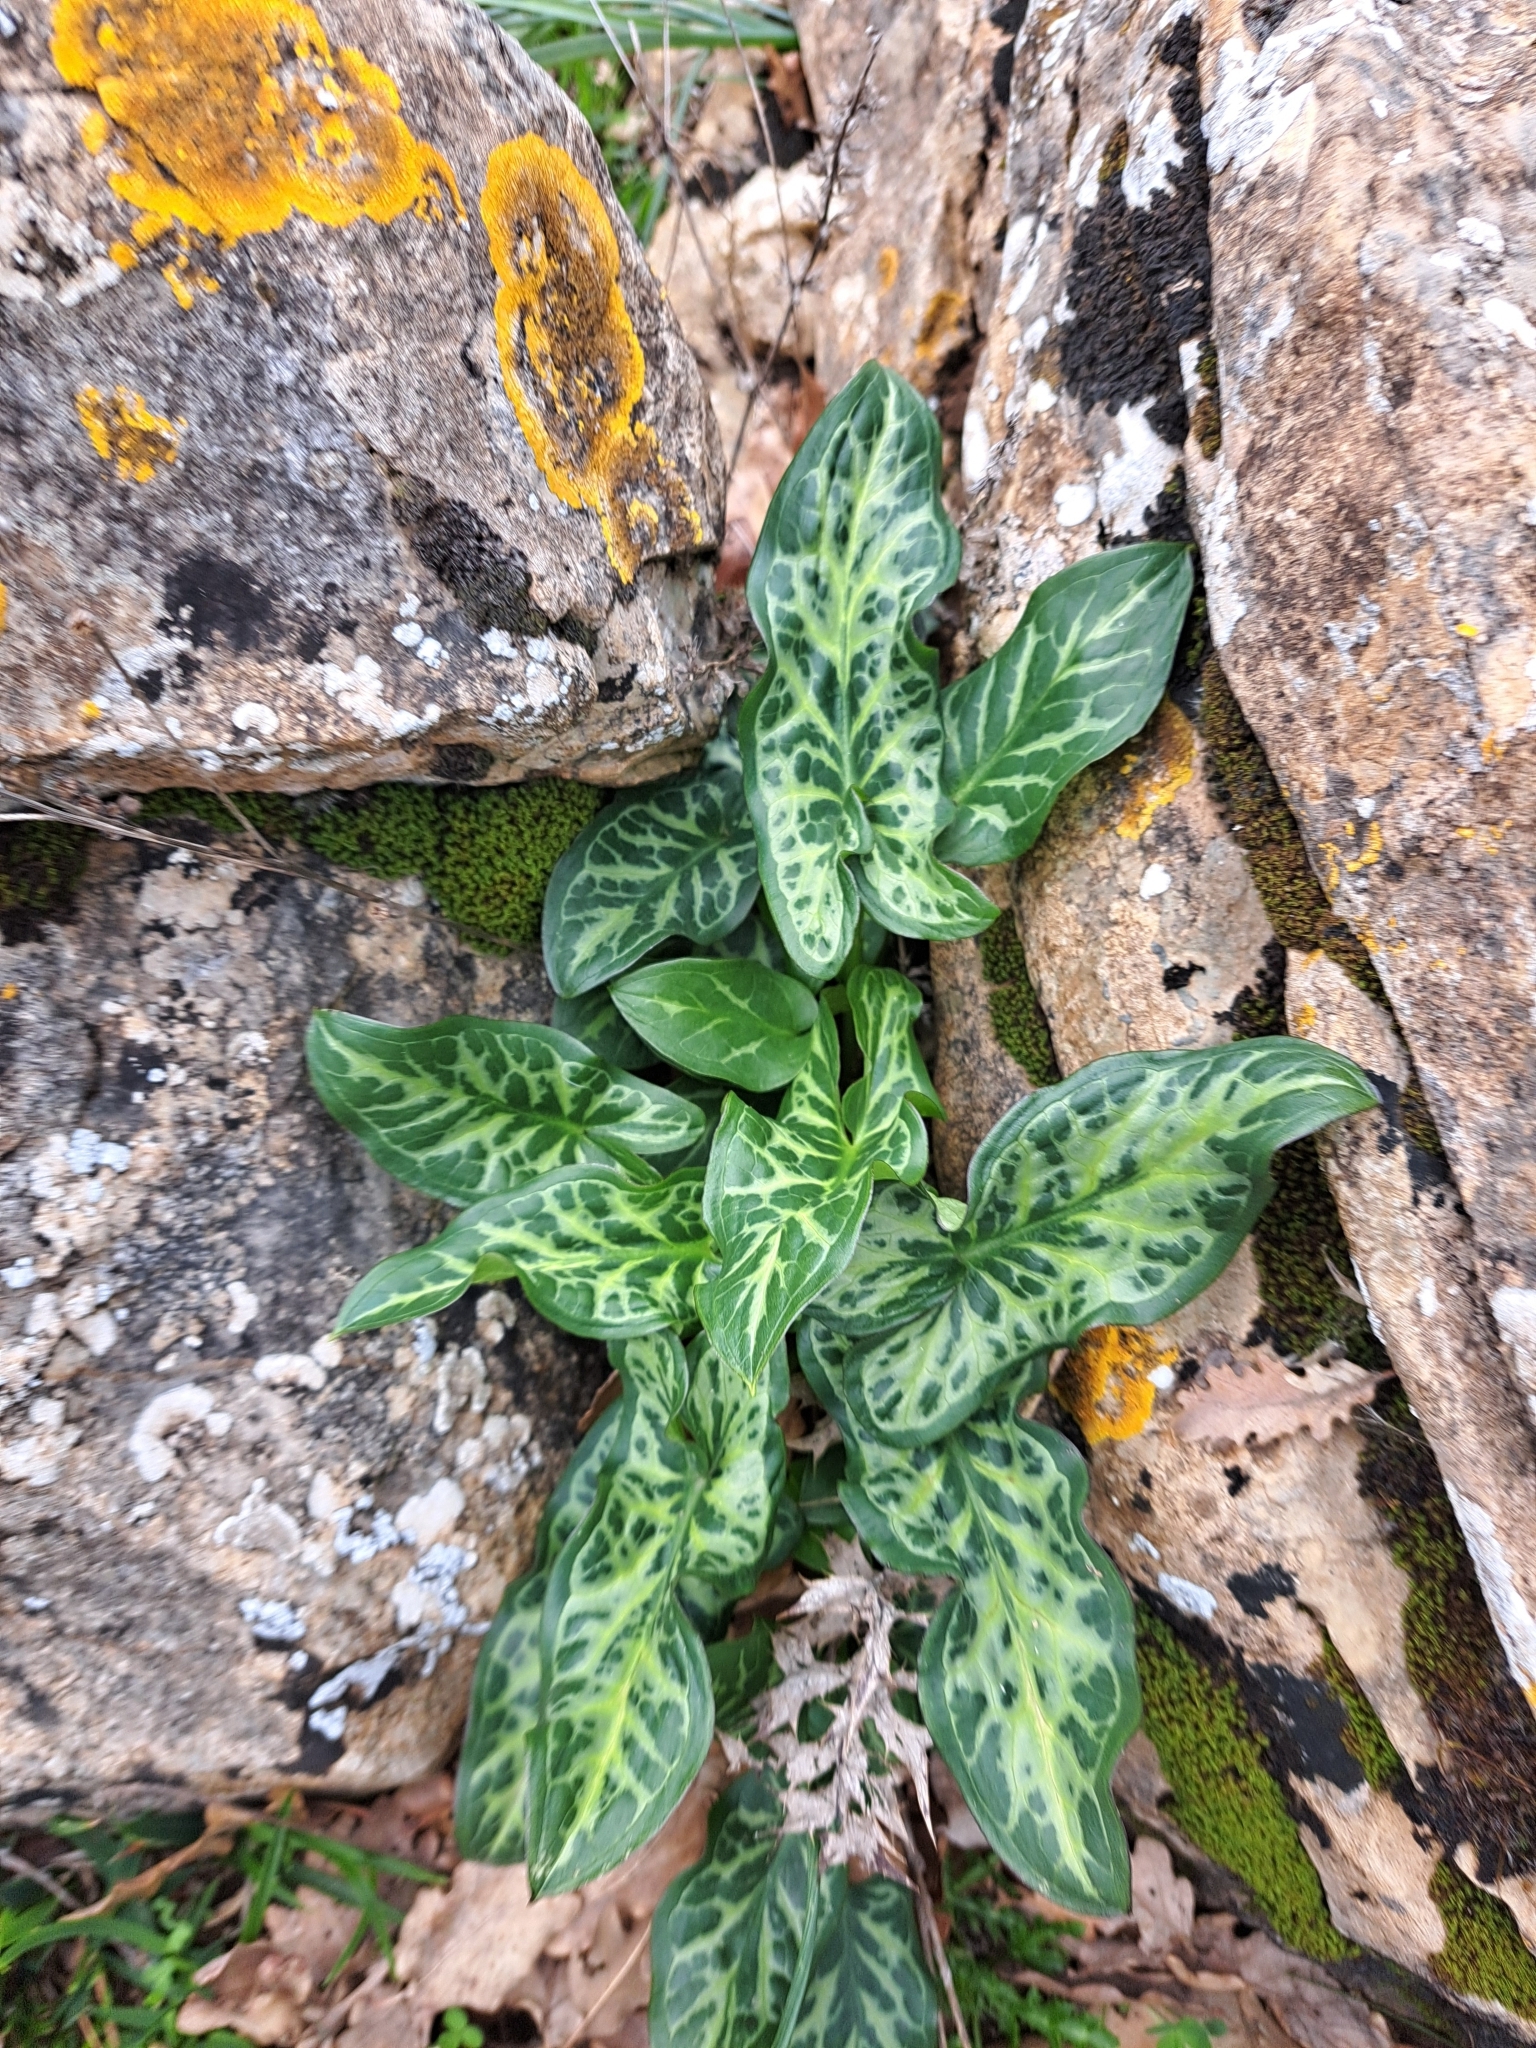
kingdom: Plantae
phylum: Tracheophyta
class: Liliopsida
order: Alismatales
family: Araceae
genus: Arum
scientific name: Arum italicum
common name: Italian lords-and-ladies
